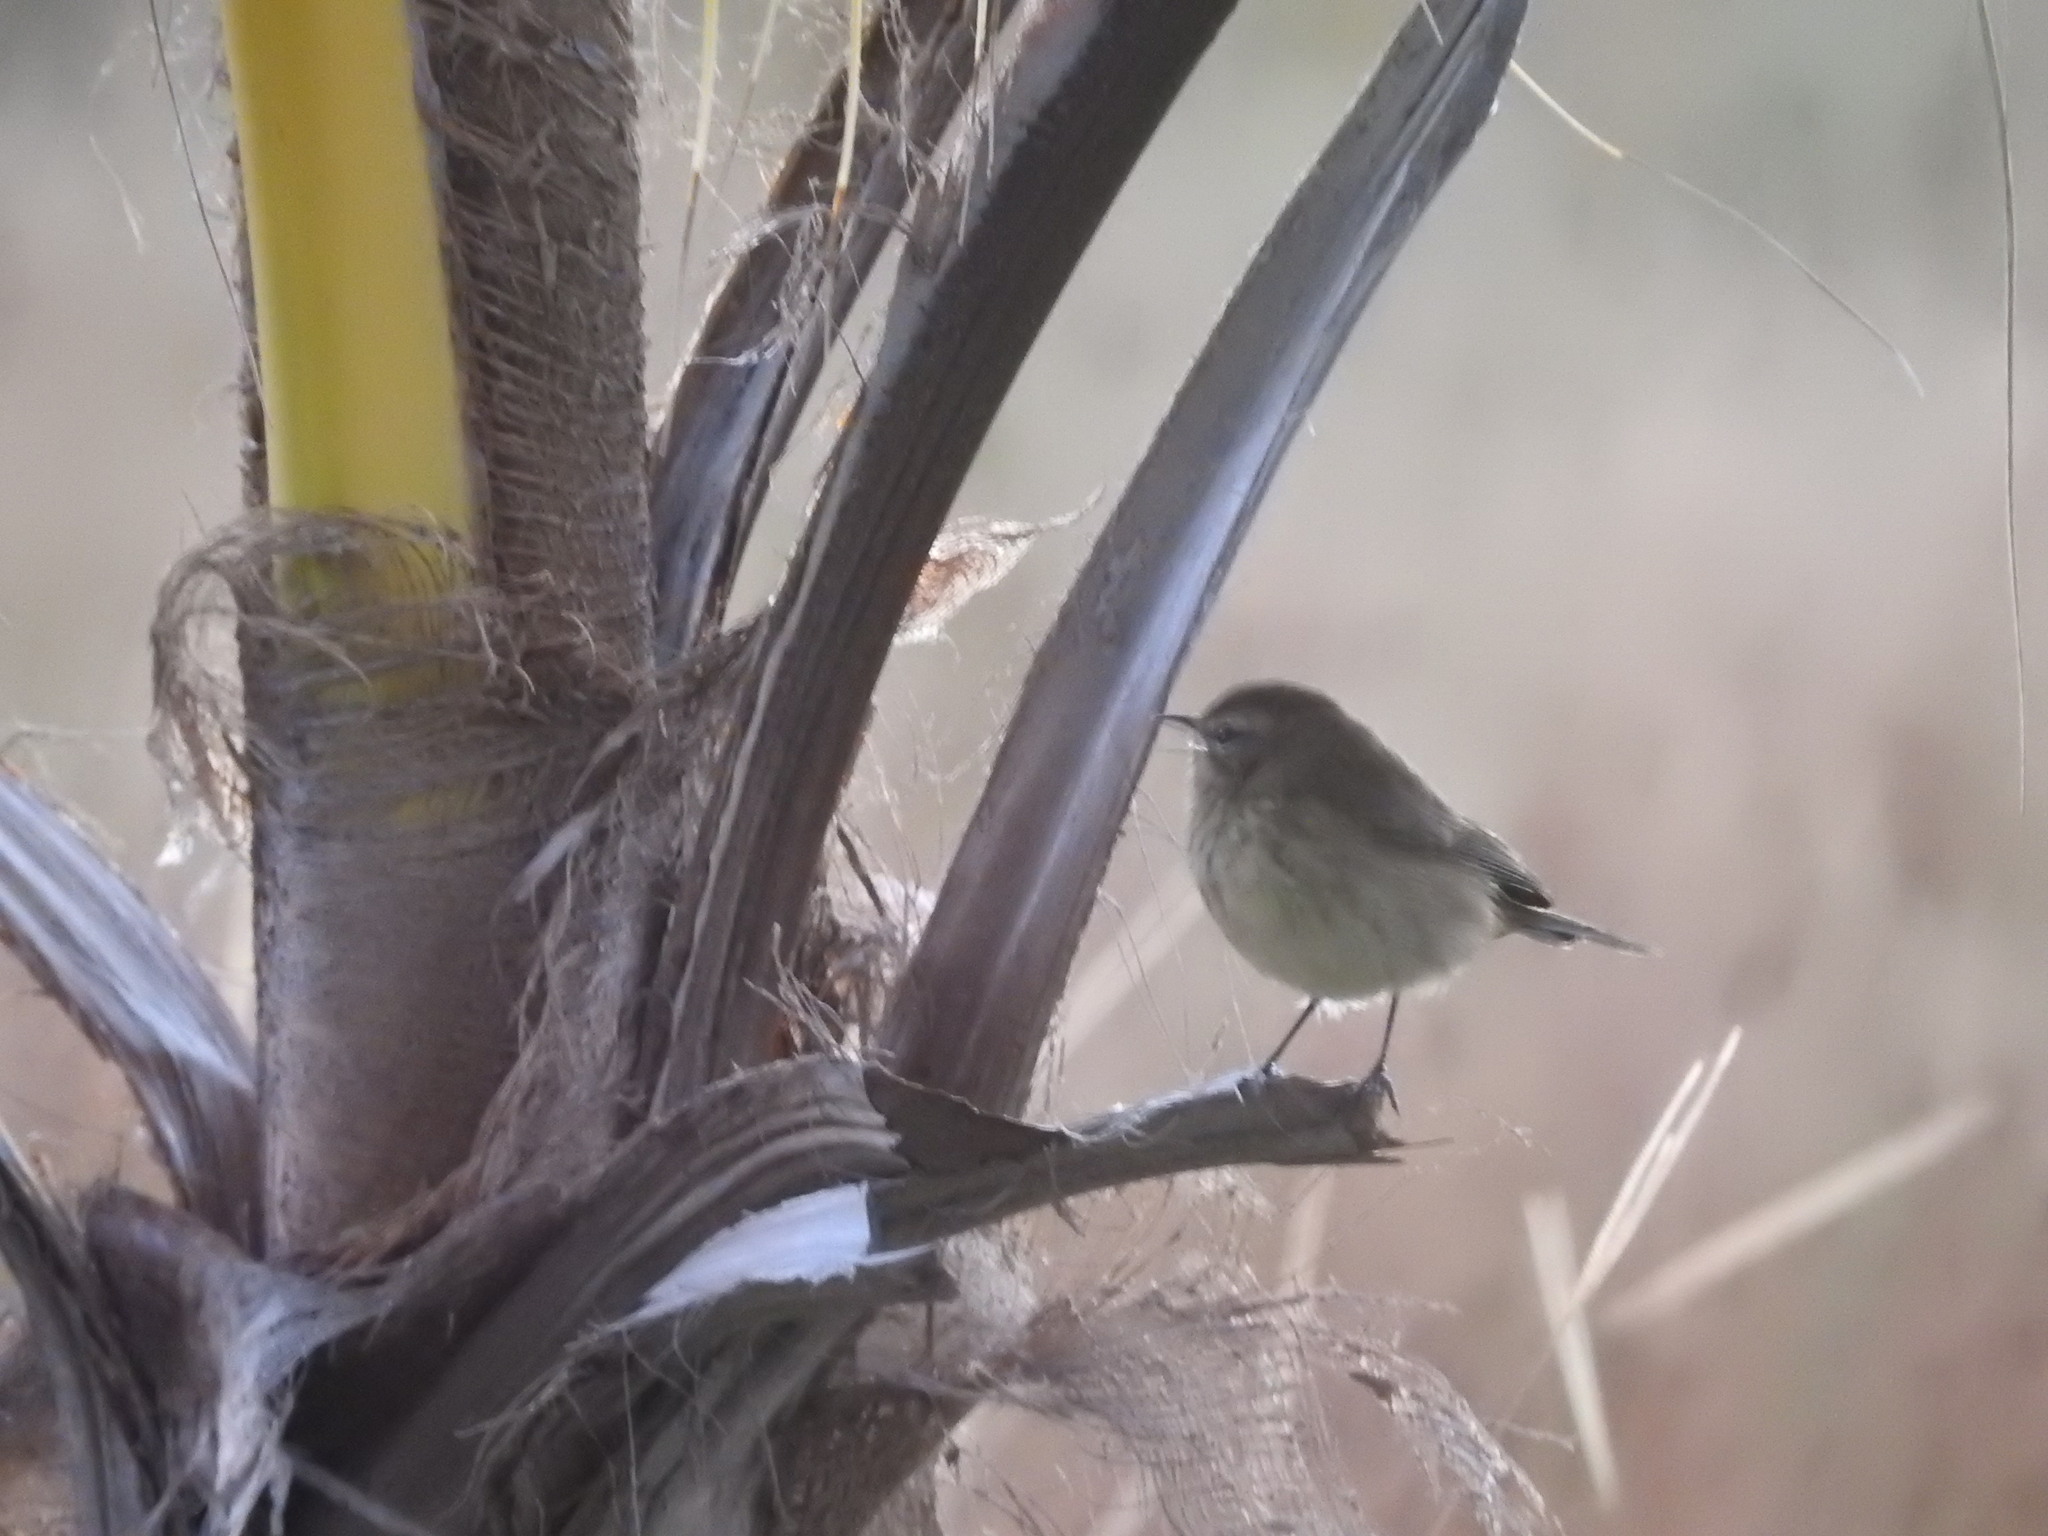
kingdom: Animalia
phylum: Chordata
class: Aves
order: Passeriformes
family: Parulidae
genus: Setophaga
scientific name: Setophaga palmarum
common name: Palm warbler
